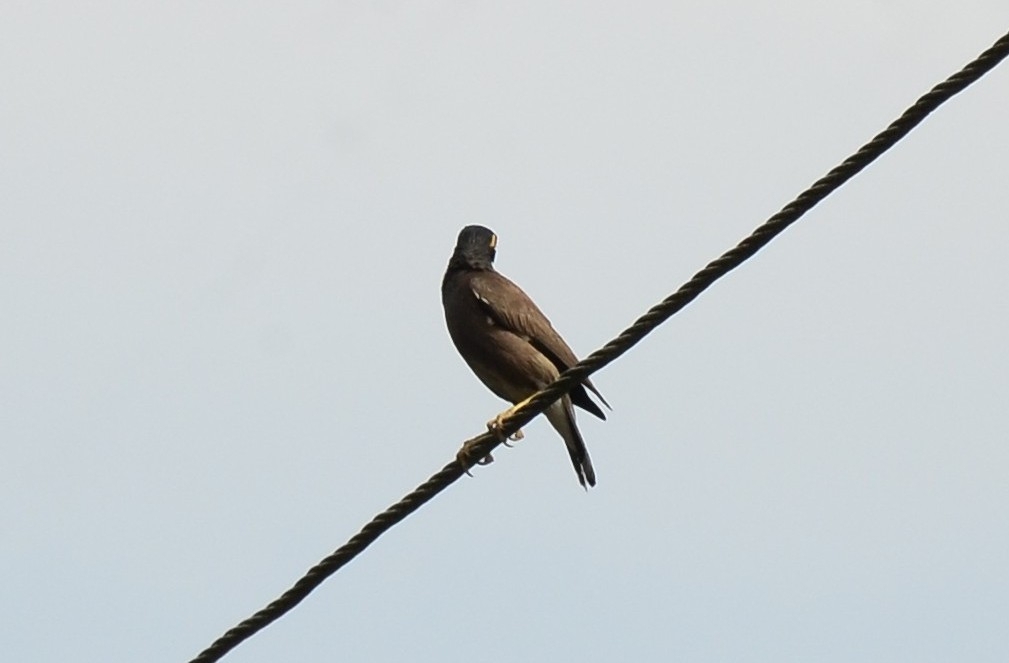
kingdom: Animalia
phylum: Chordata
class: Aves
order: Passeriformes
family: Sturnidae
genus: Acridotheres
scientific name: Acridotheres tristis
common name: Common myna
